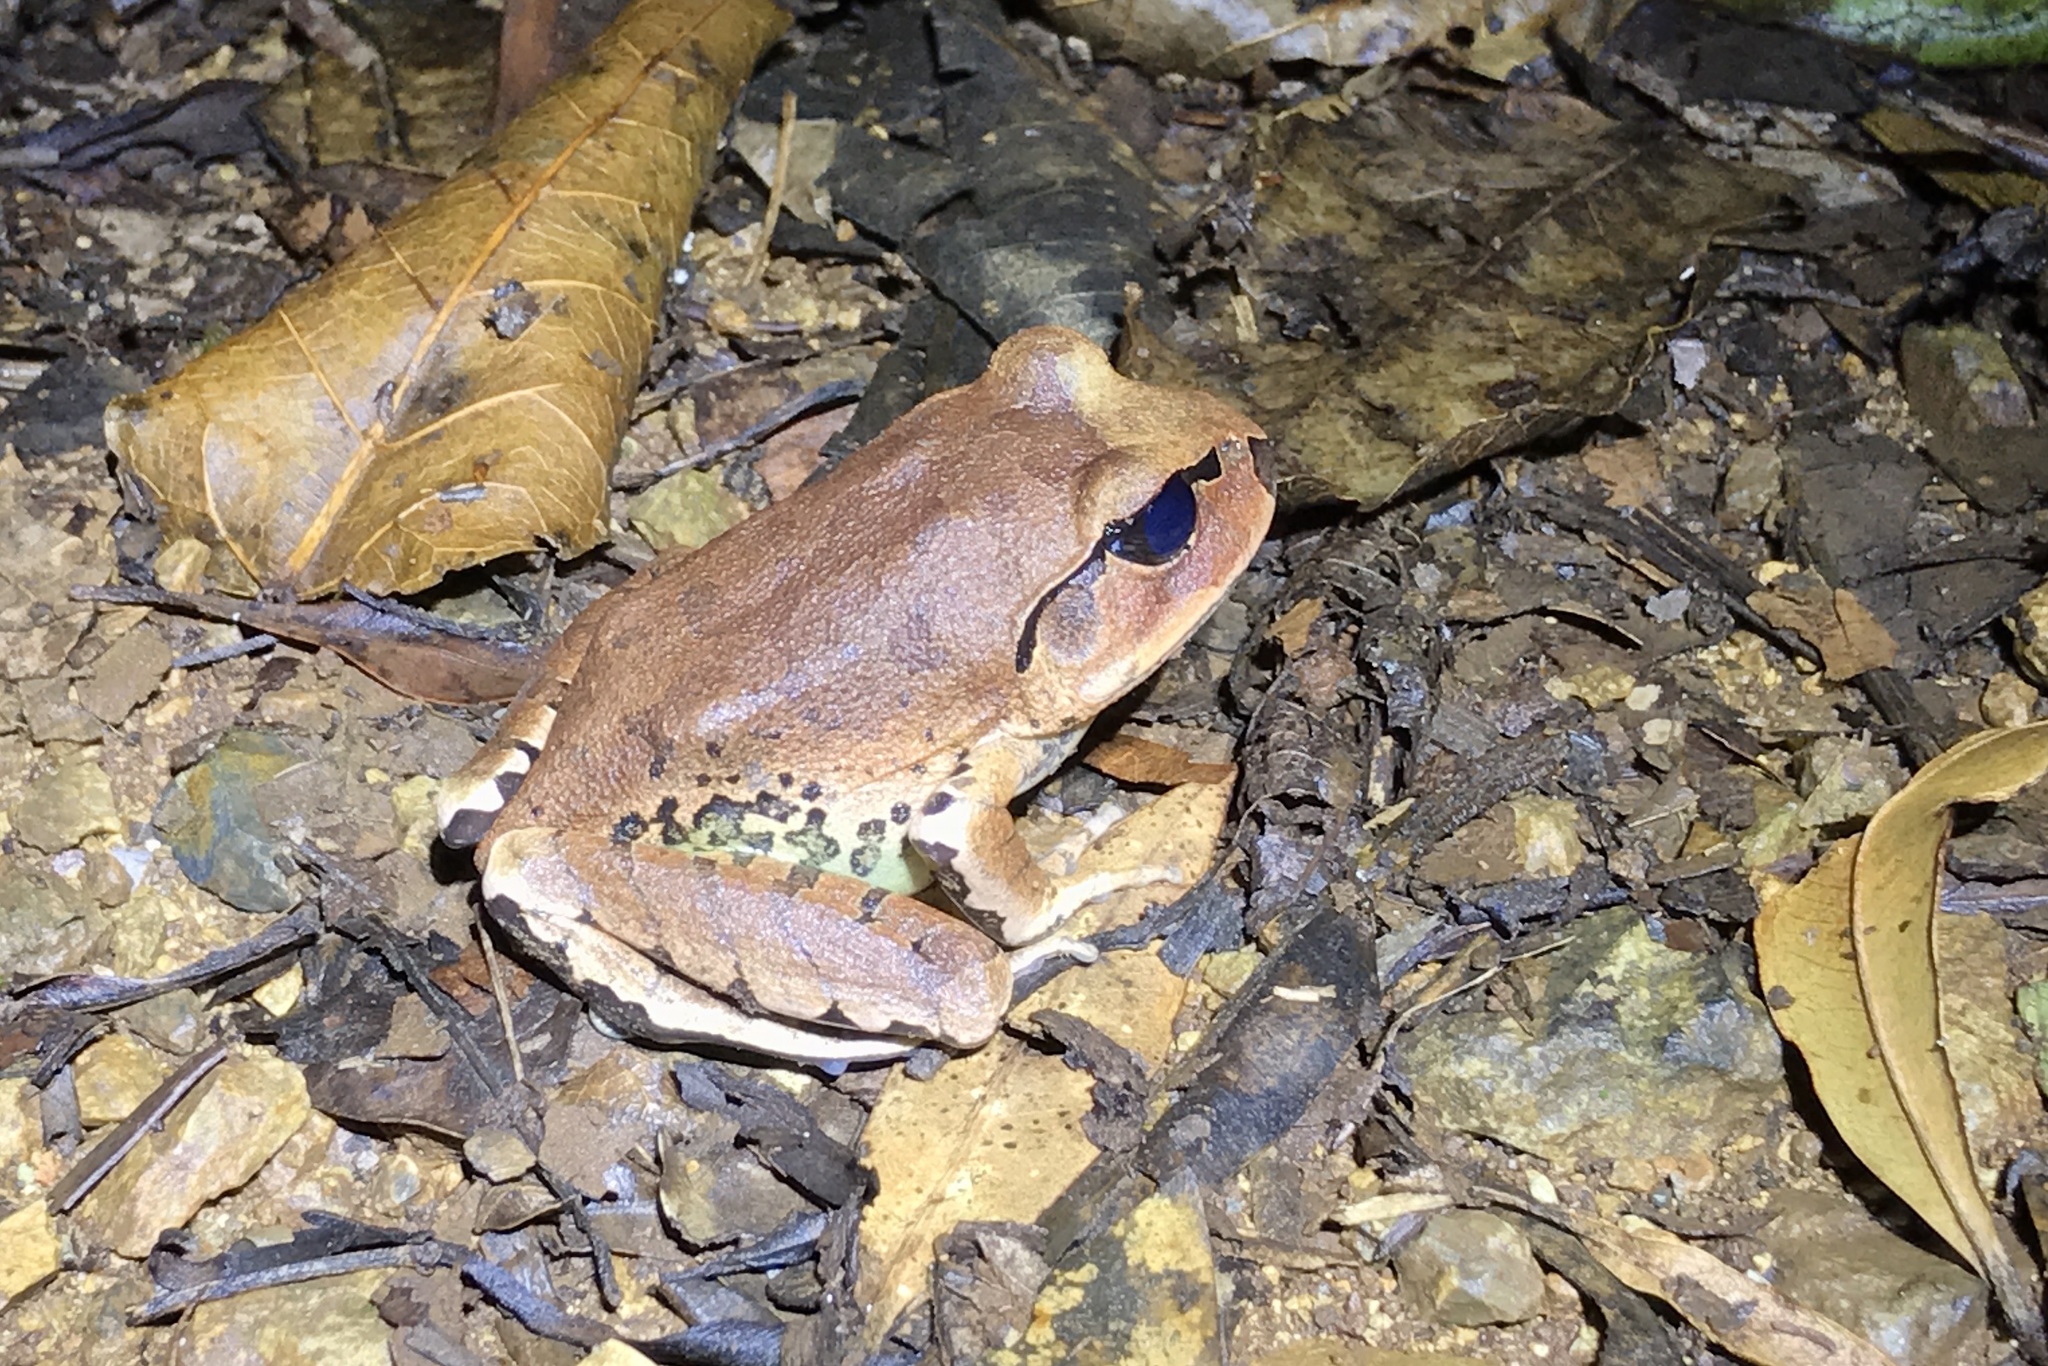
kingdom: Animalia
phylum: Chordata
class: Amphibia
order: Anura
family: Myobatrachidae
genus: Mixophyes
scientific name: Mixophyes fasciolatus
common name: Great barred river-frog
